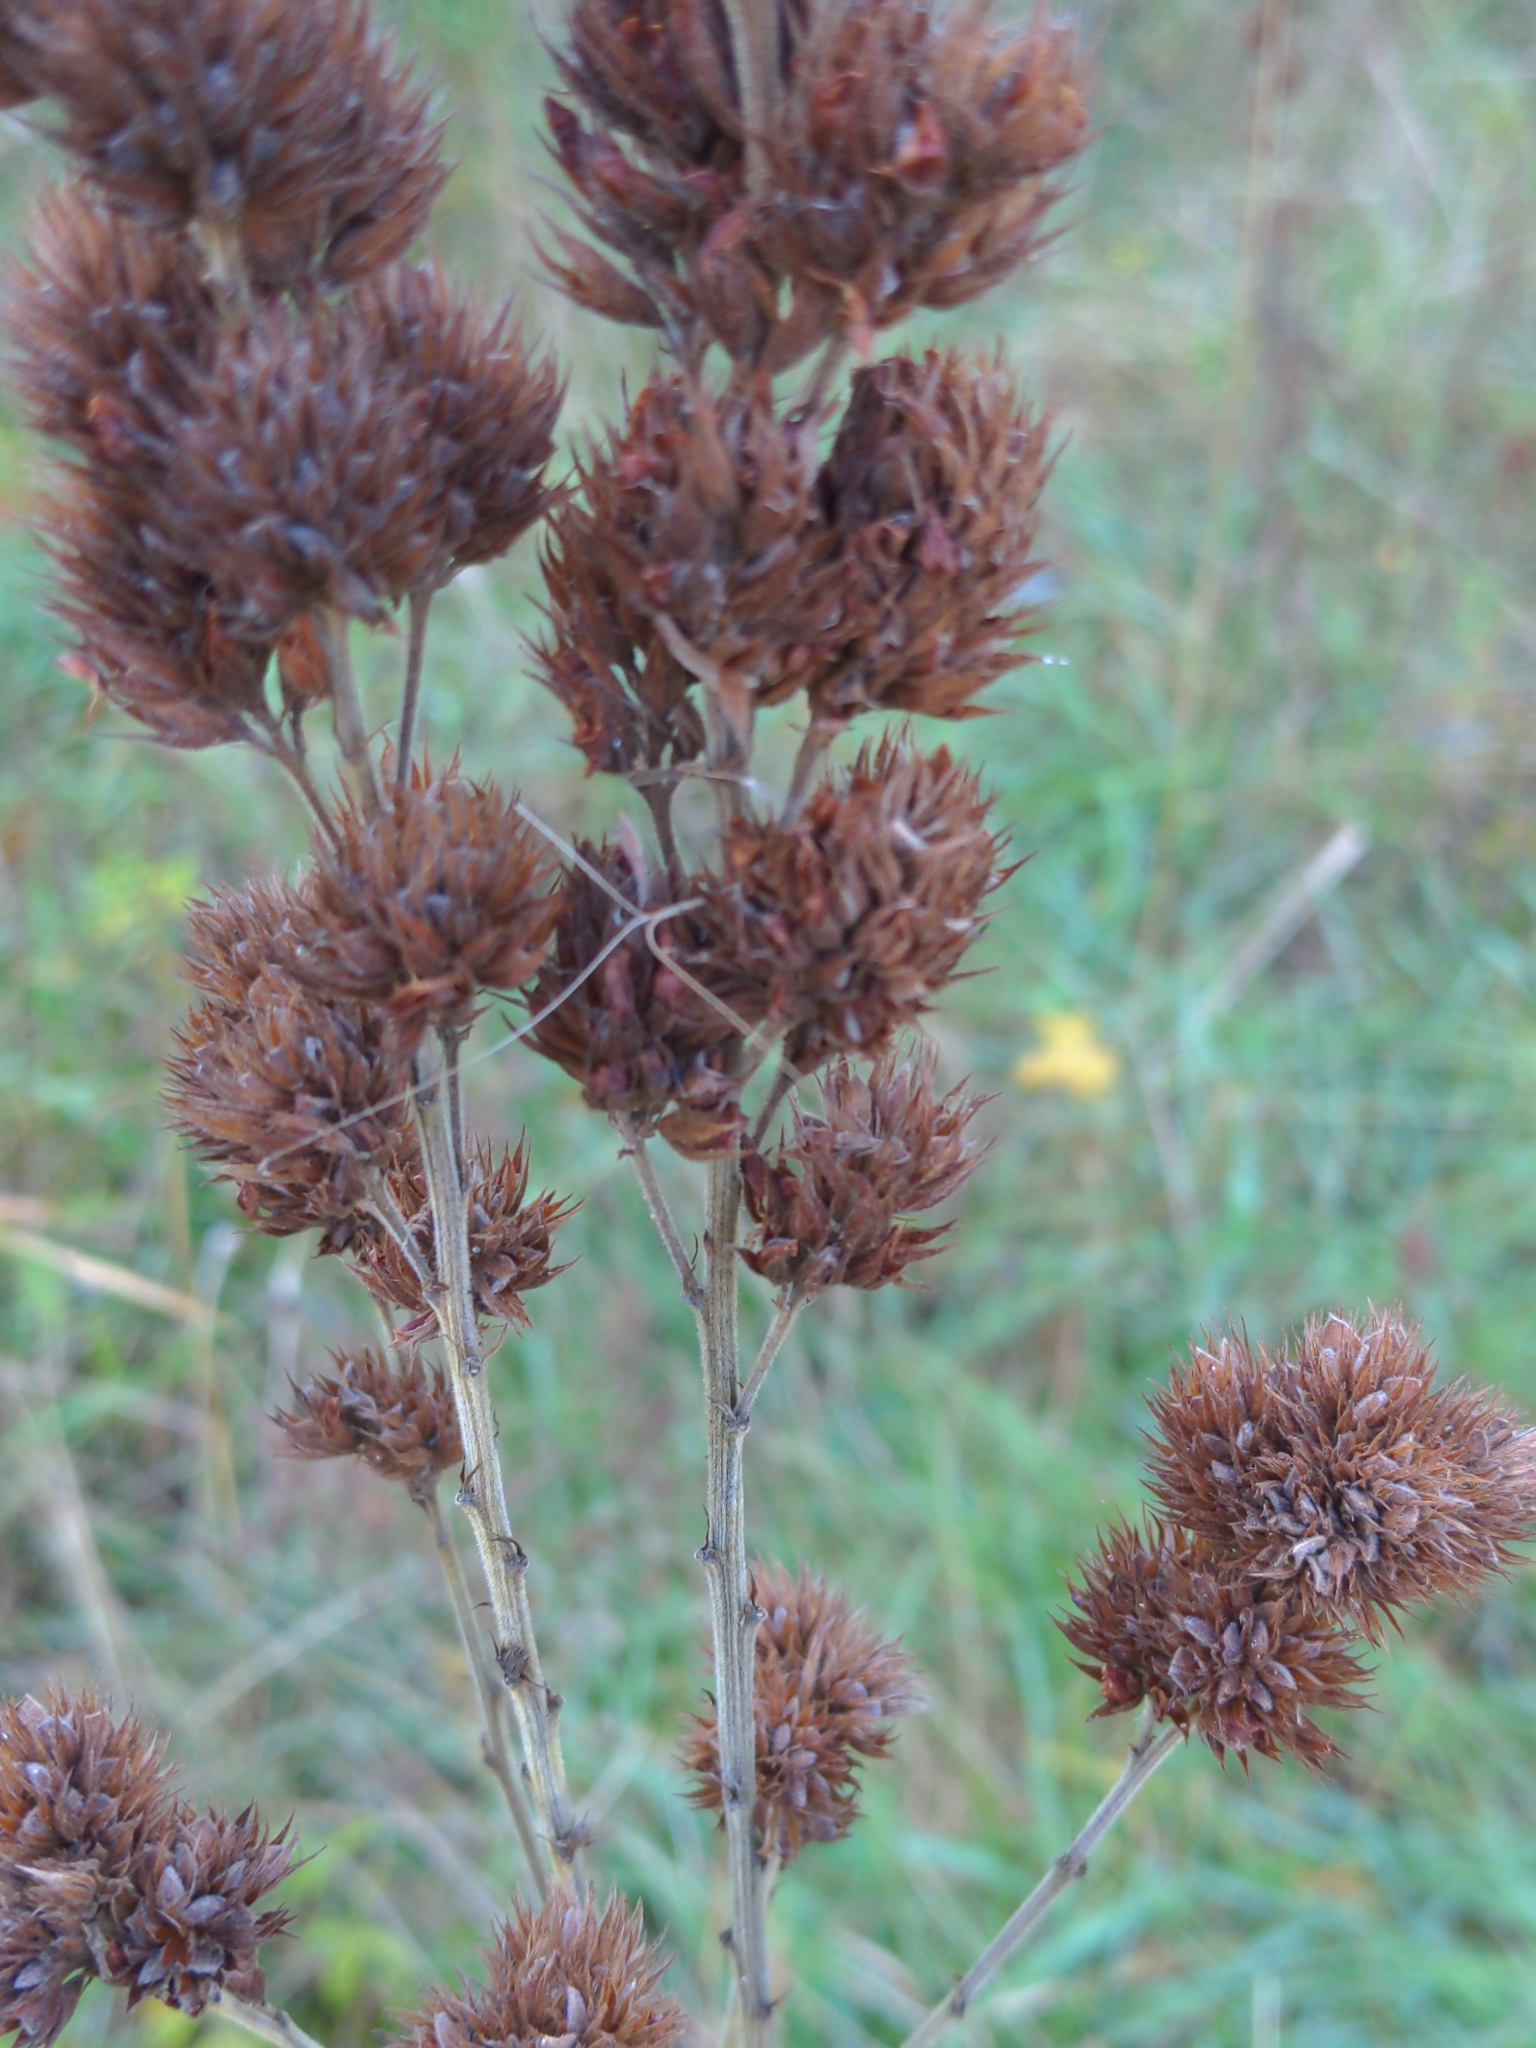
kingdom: Plantae
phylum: Tracheophyta
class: Magnoliopsida
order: Fabales
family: Fabaceae
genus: Lespedeza
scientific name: Lespedeza capitata
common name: Dusty clover
